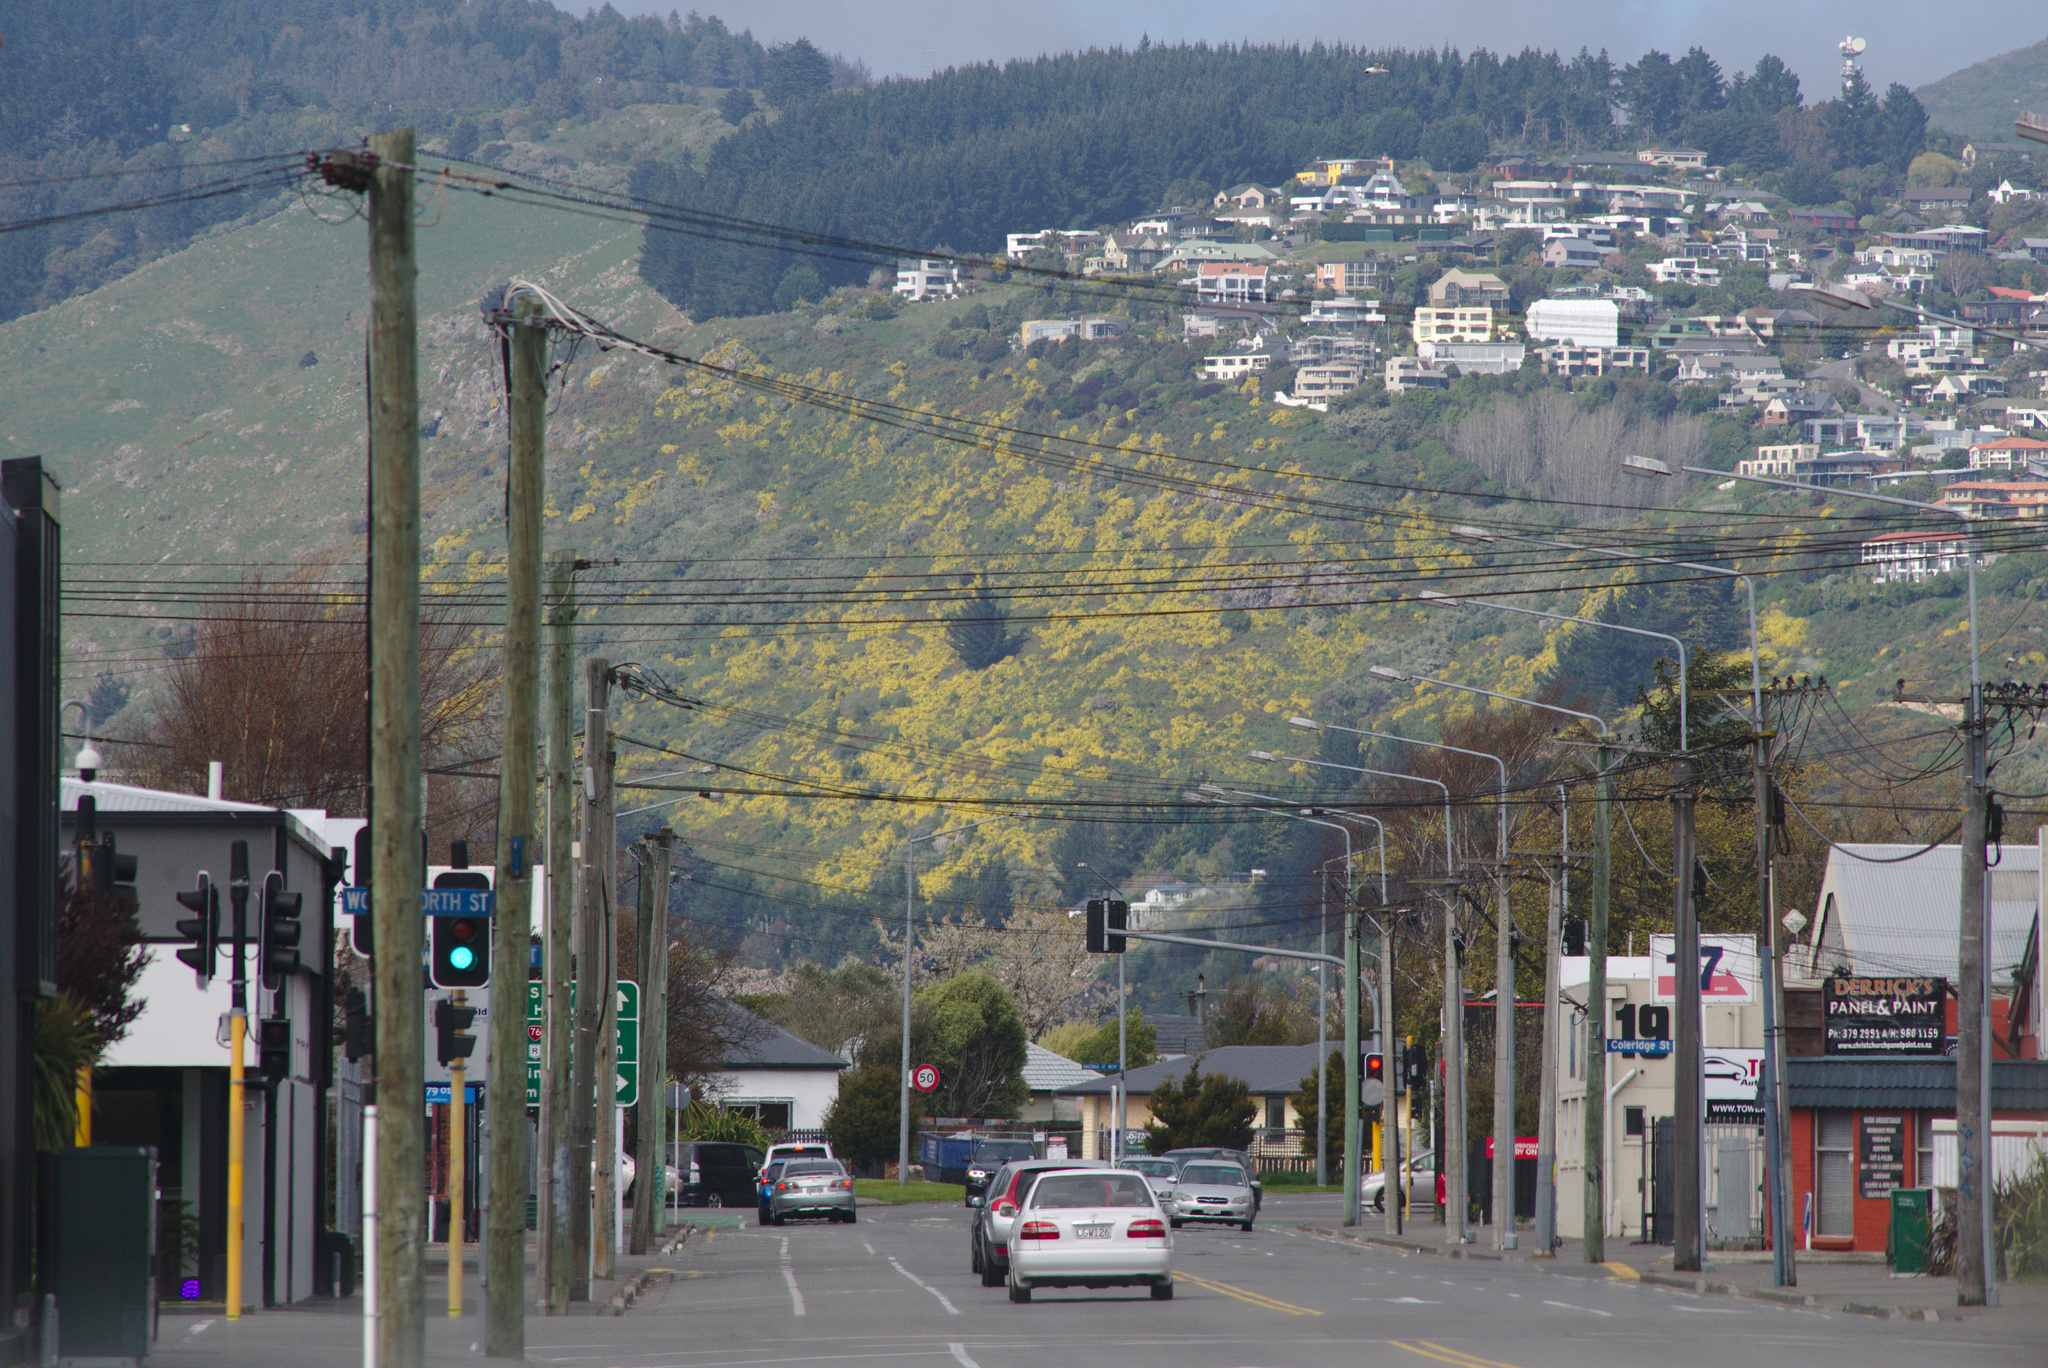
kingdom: Plantae
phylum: Tracheophyta
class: Magnoliopsida
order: Asterales
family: Asteraceae
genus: Osteospermum
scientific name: Osteospermum moniliferum
